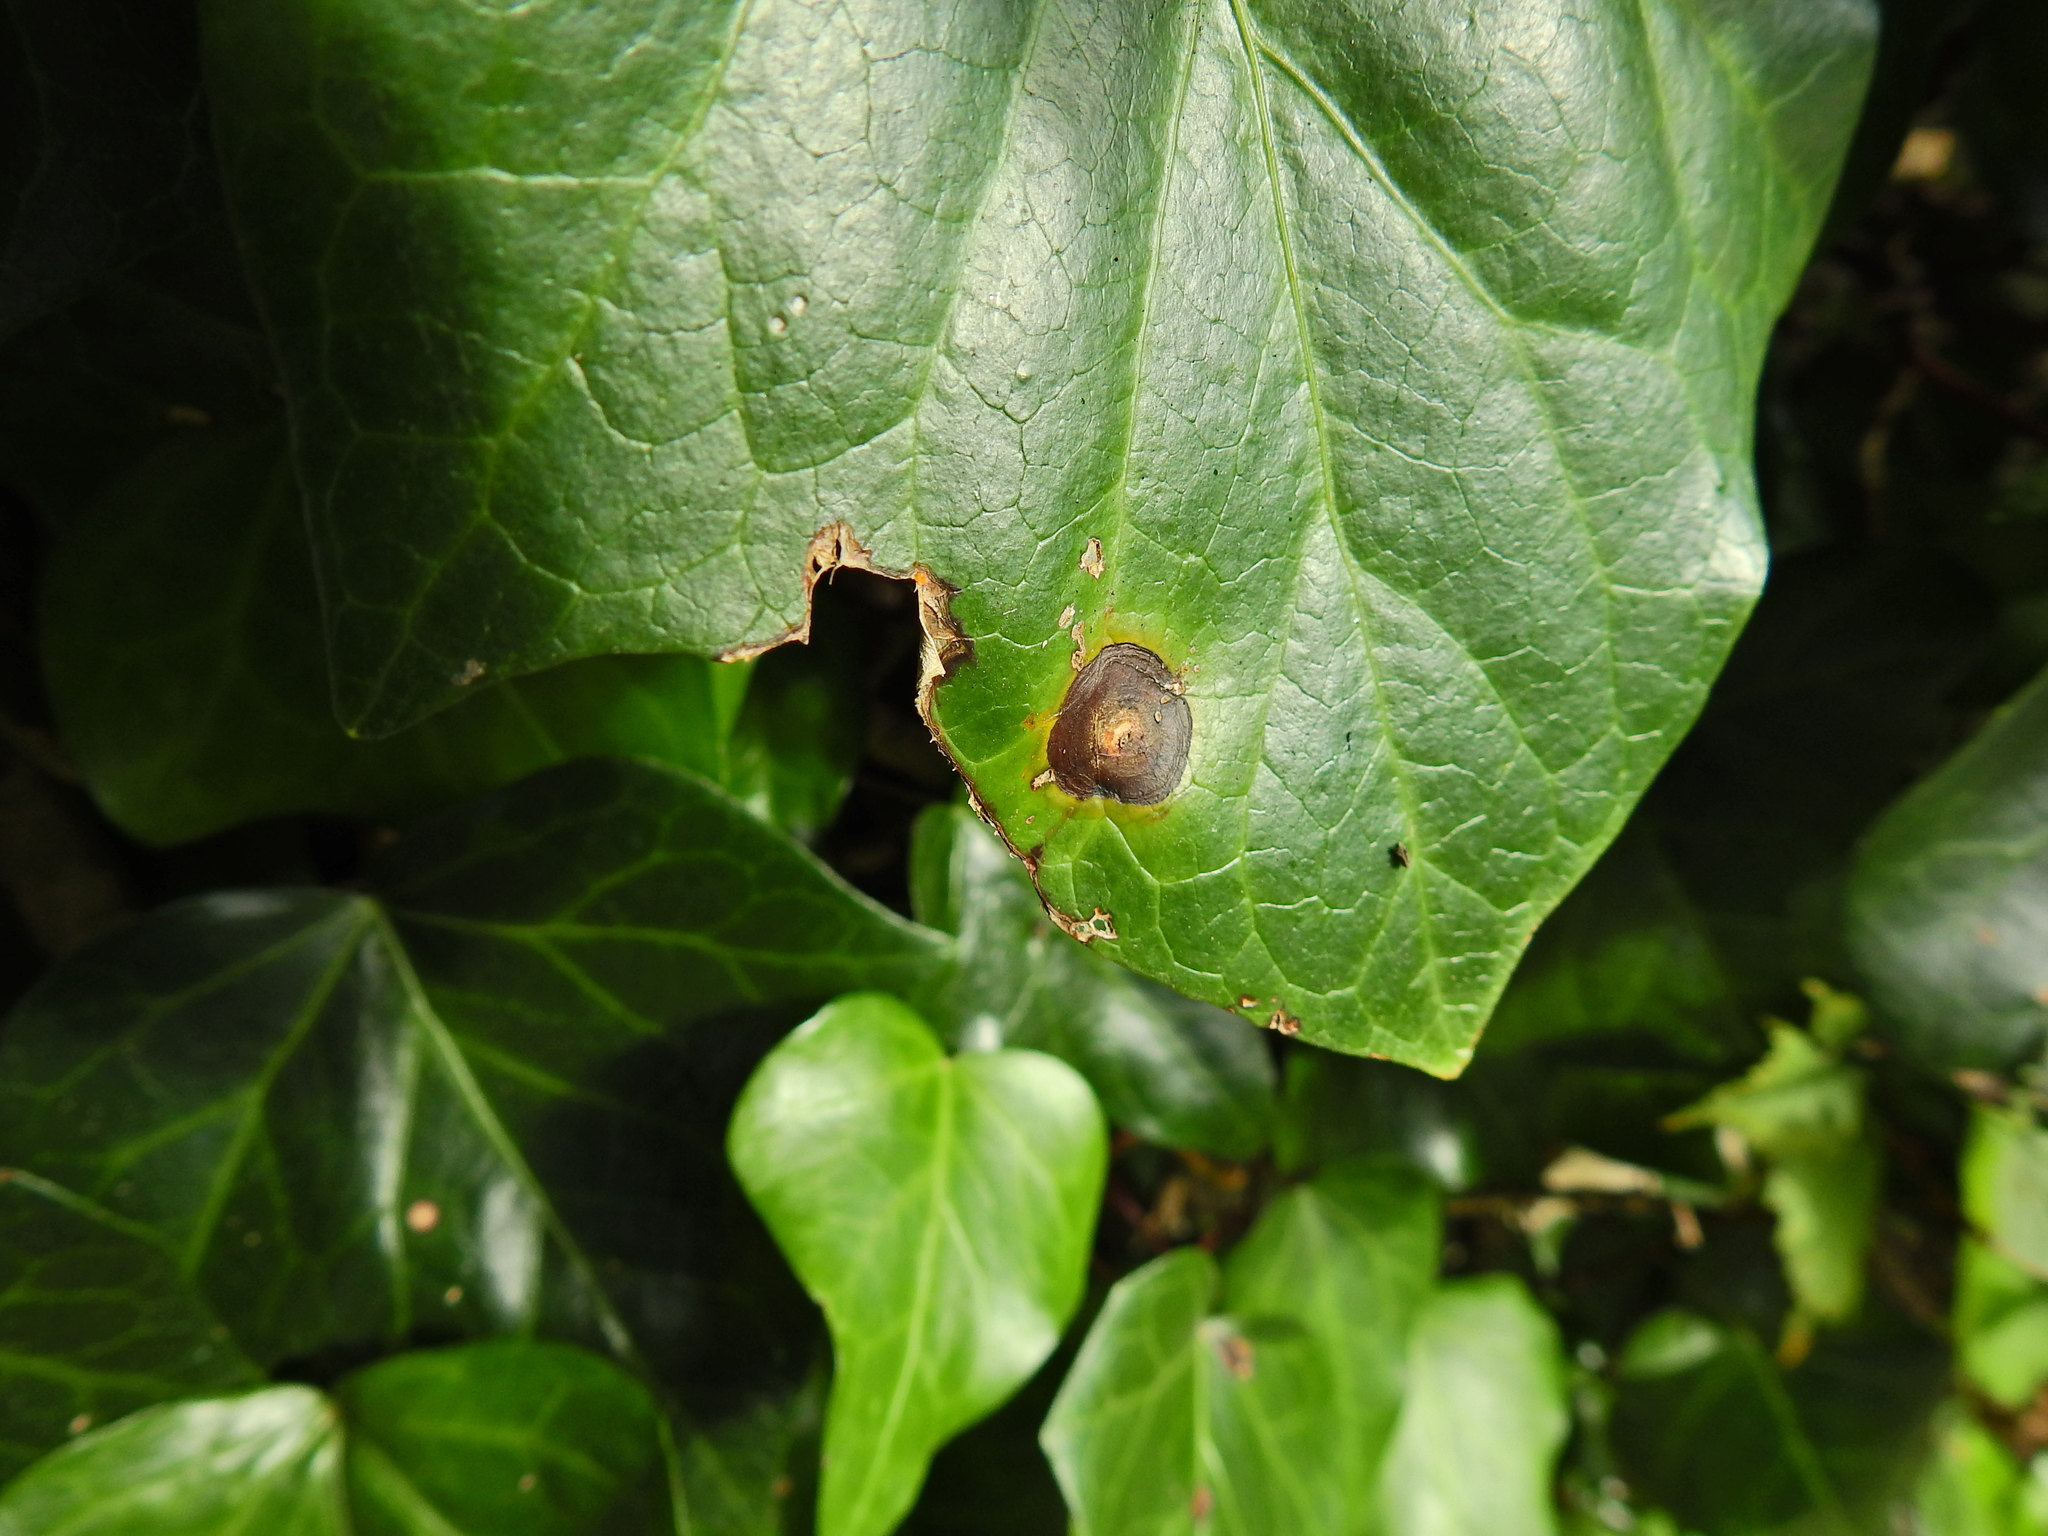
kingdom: Fungi
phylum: Ascomycota
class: Dothideomycetes
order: Pleosporales
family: Didymellaceae
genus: Boeremia
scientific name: Boeremia hedericola
